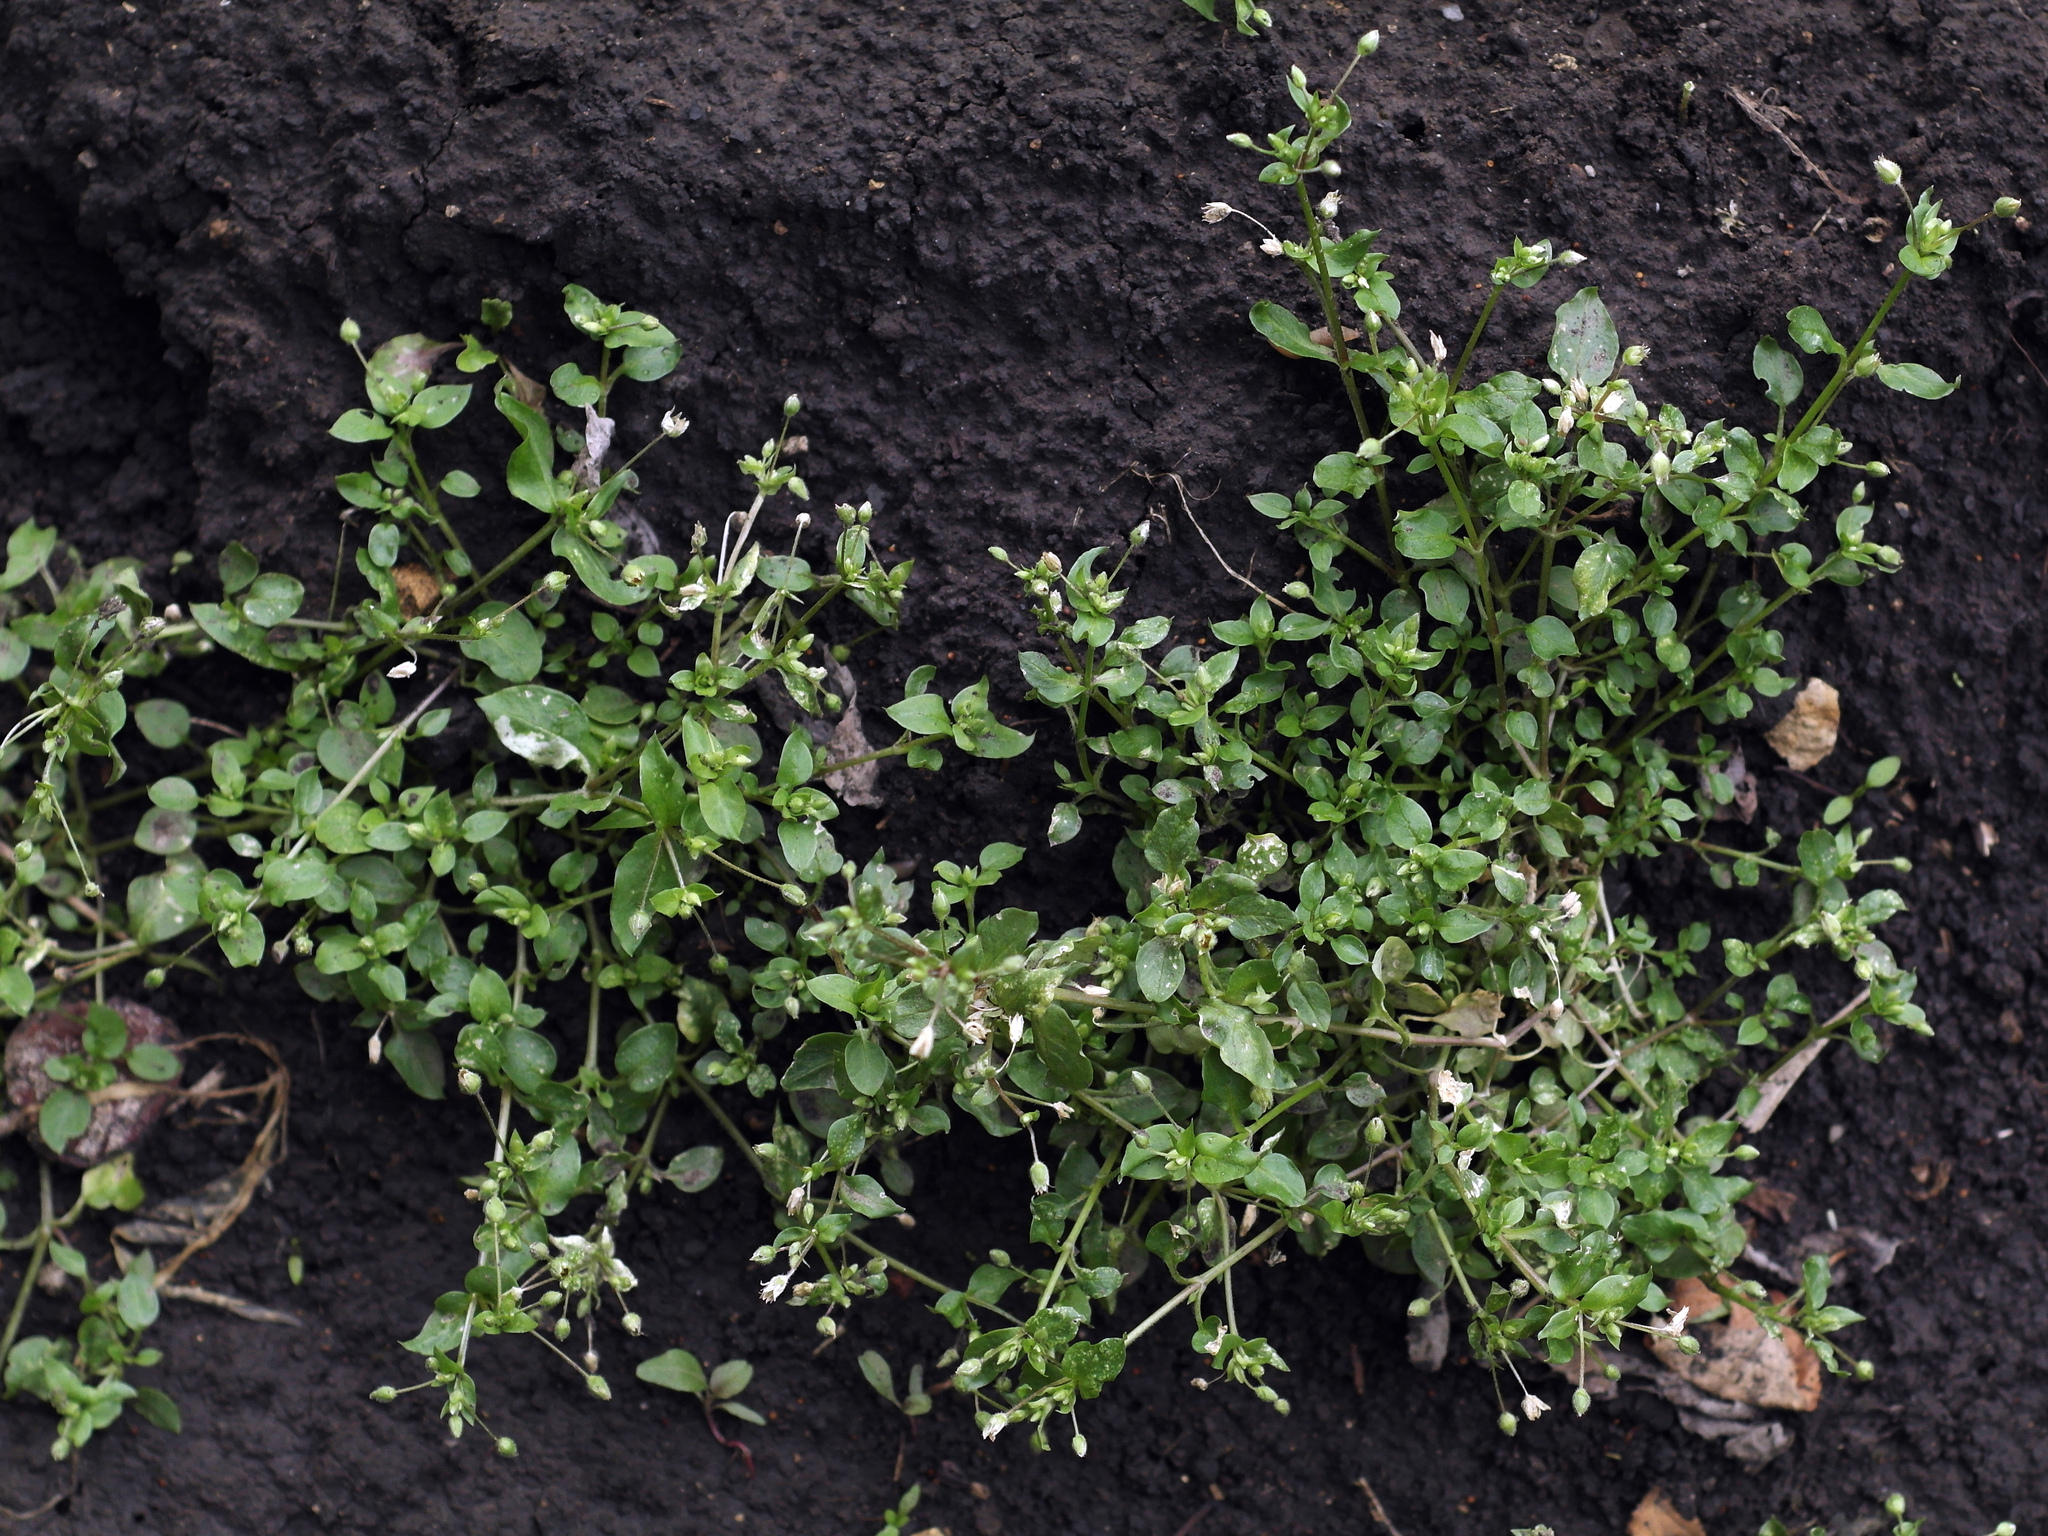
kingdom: Plantae
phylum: Tracheophyta
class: Magnoliopsida
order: Caryophyllales
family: Caryophyllaceae
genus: Stellaria
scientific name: Stellaria media
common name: Common chickweed
